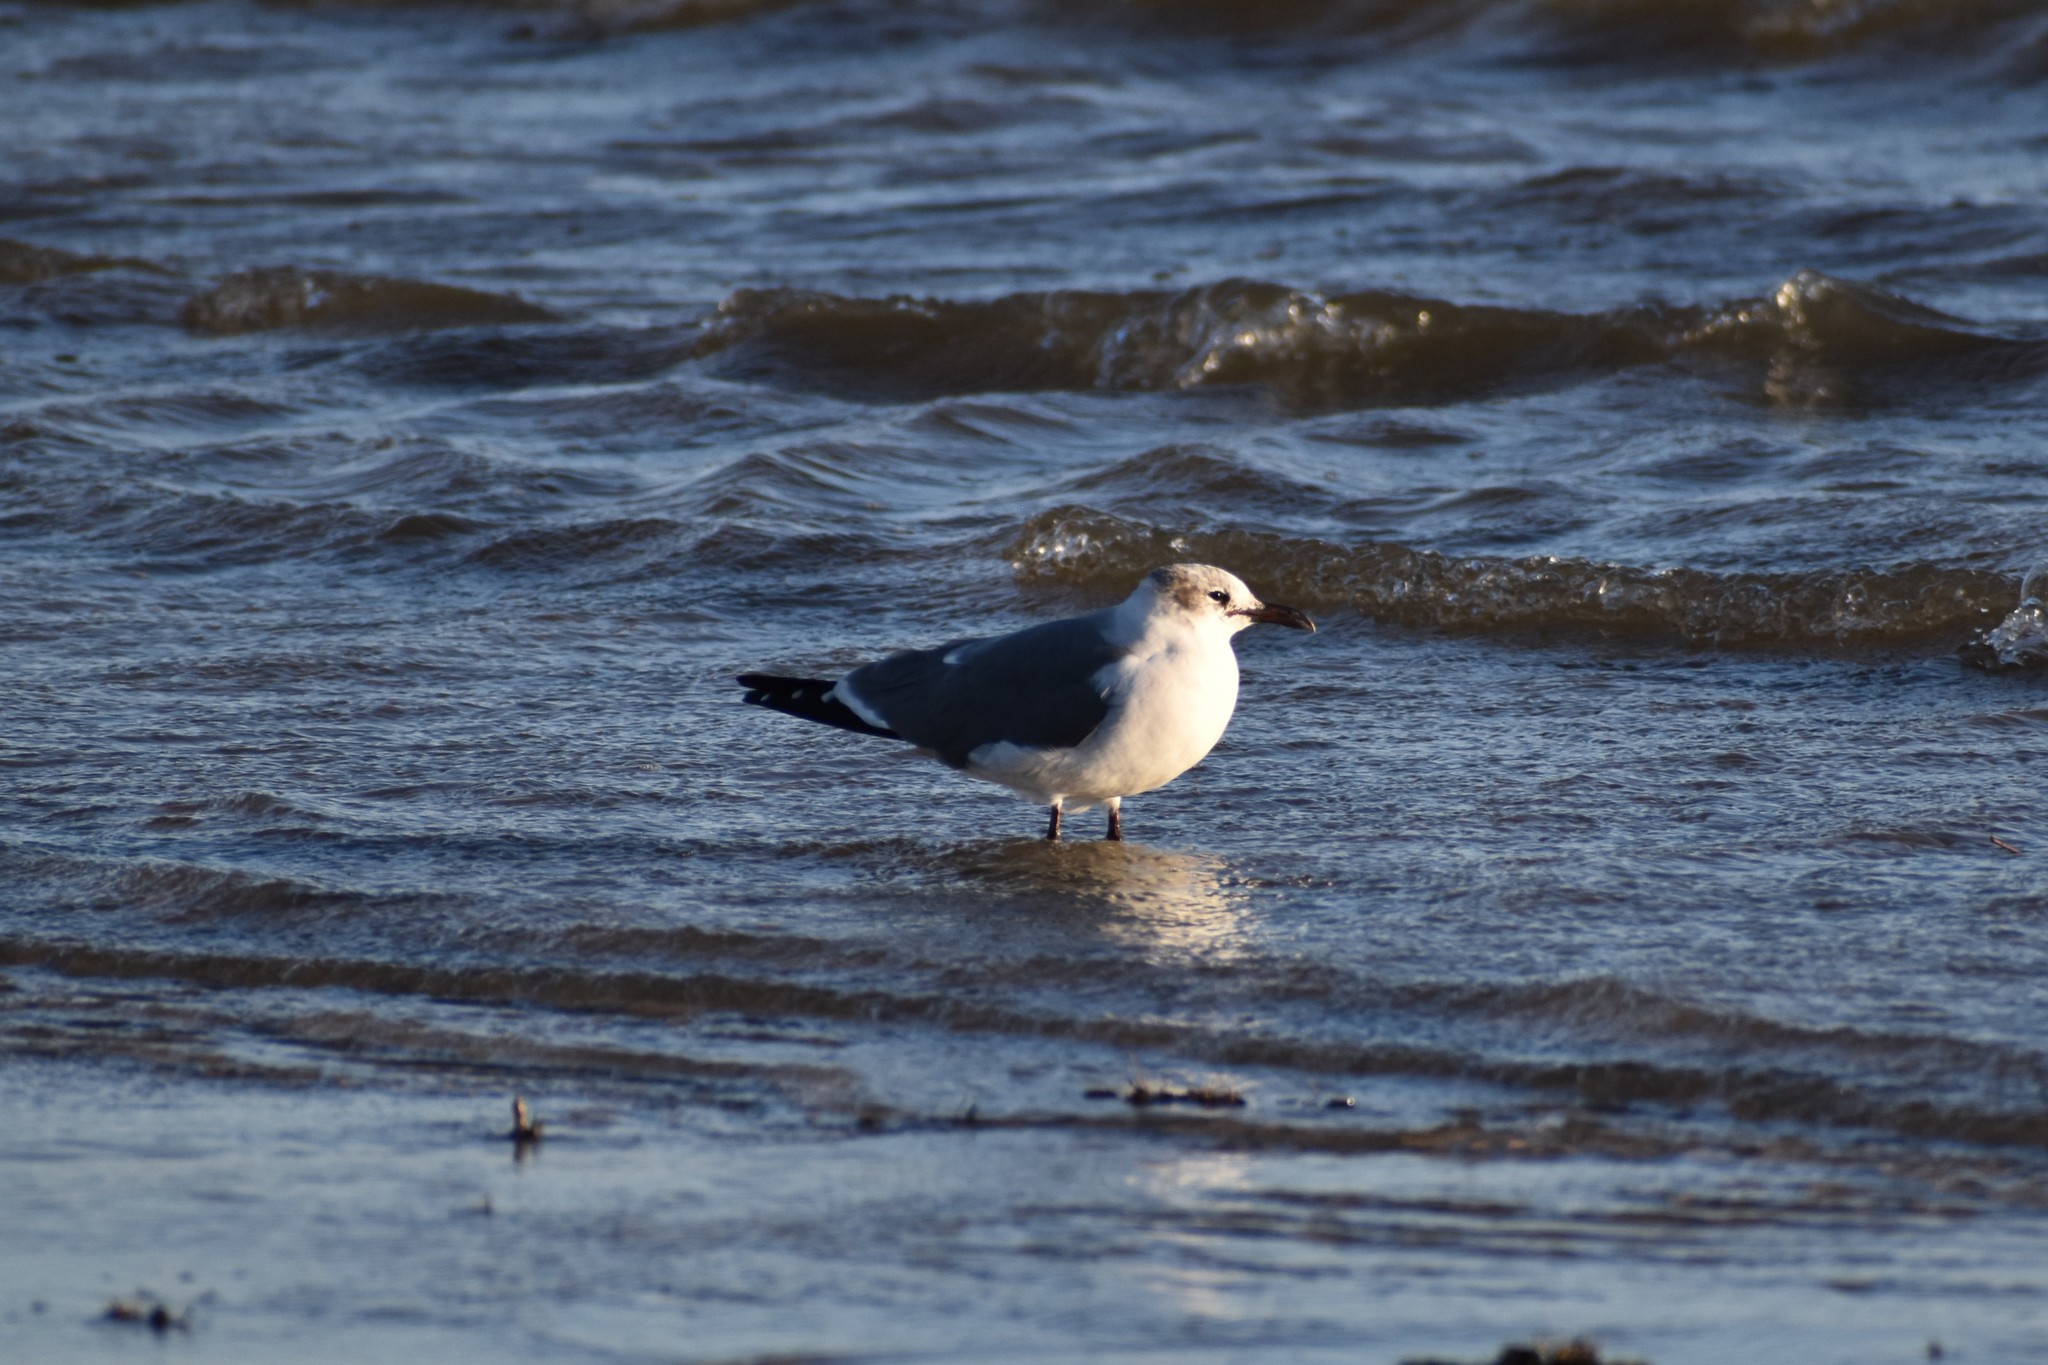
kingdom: Animalia
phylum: Chordata
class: Aves
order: Charadriiformes
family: Laridae
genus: Leucophaeus
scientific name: Leucophaeus atricilla
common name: Laughing gull
